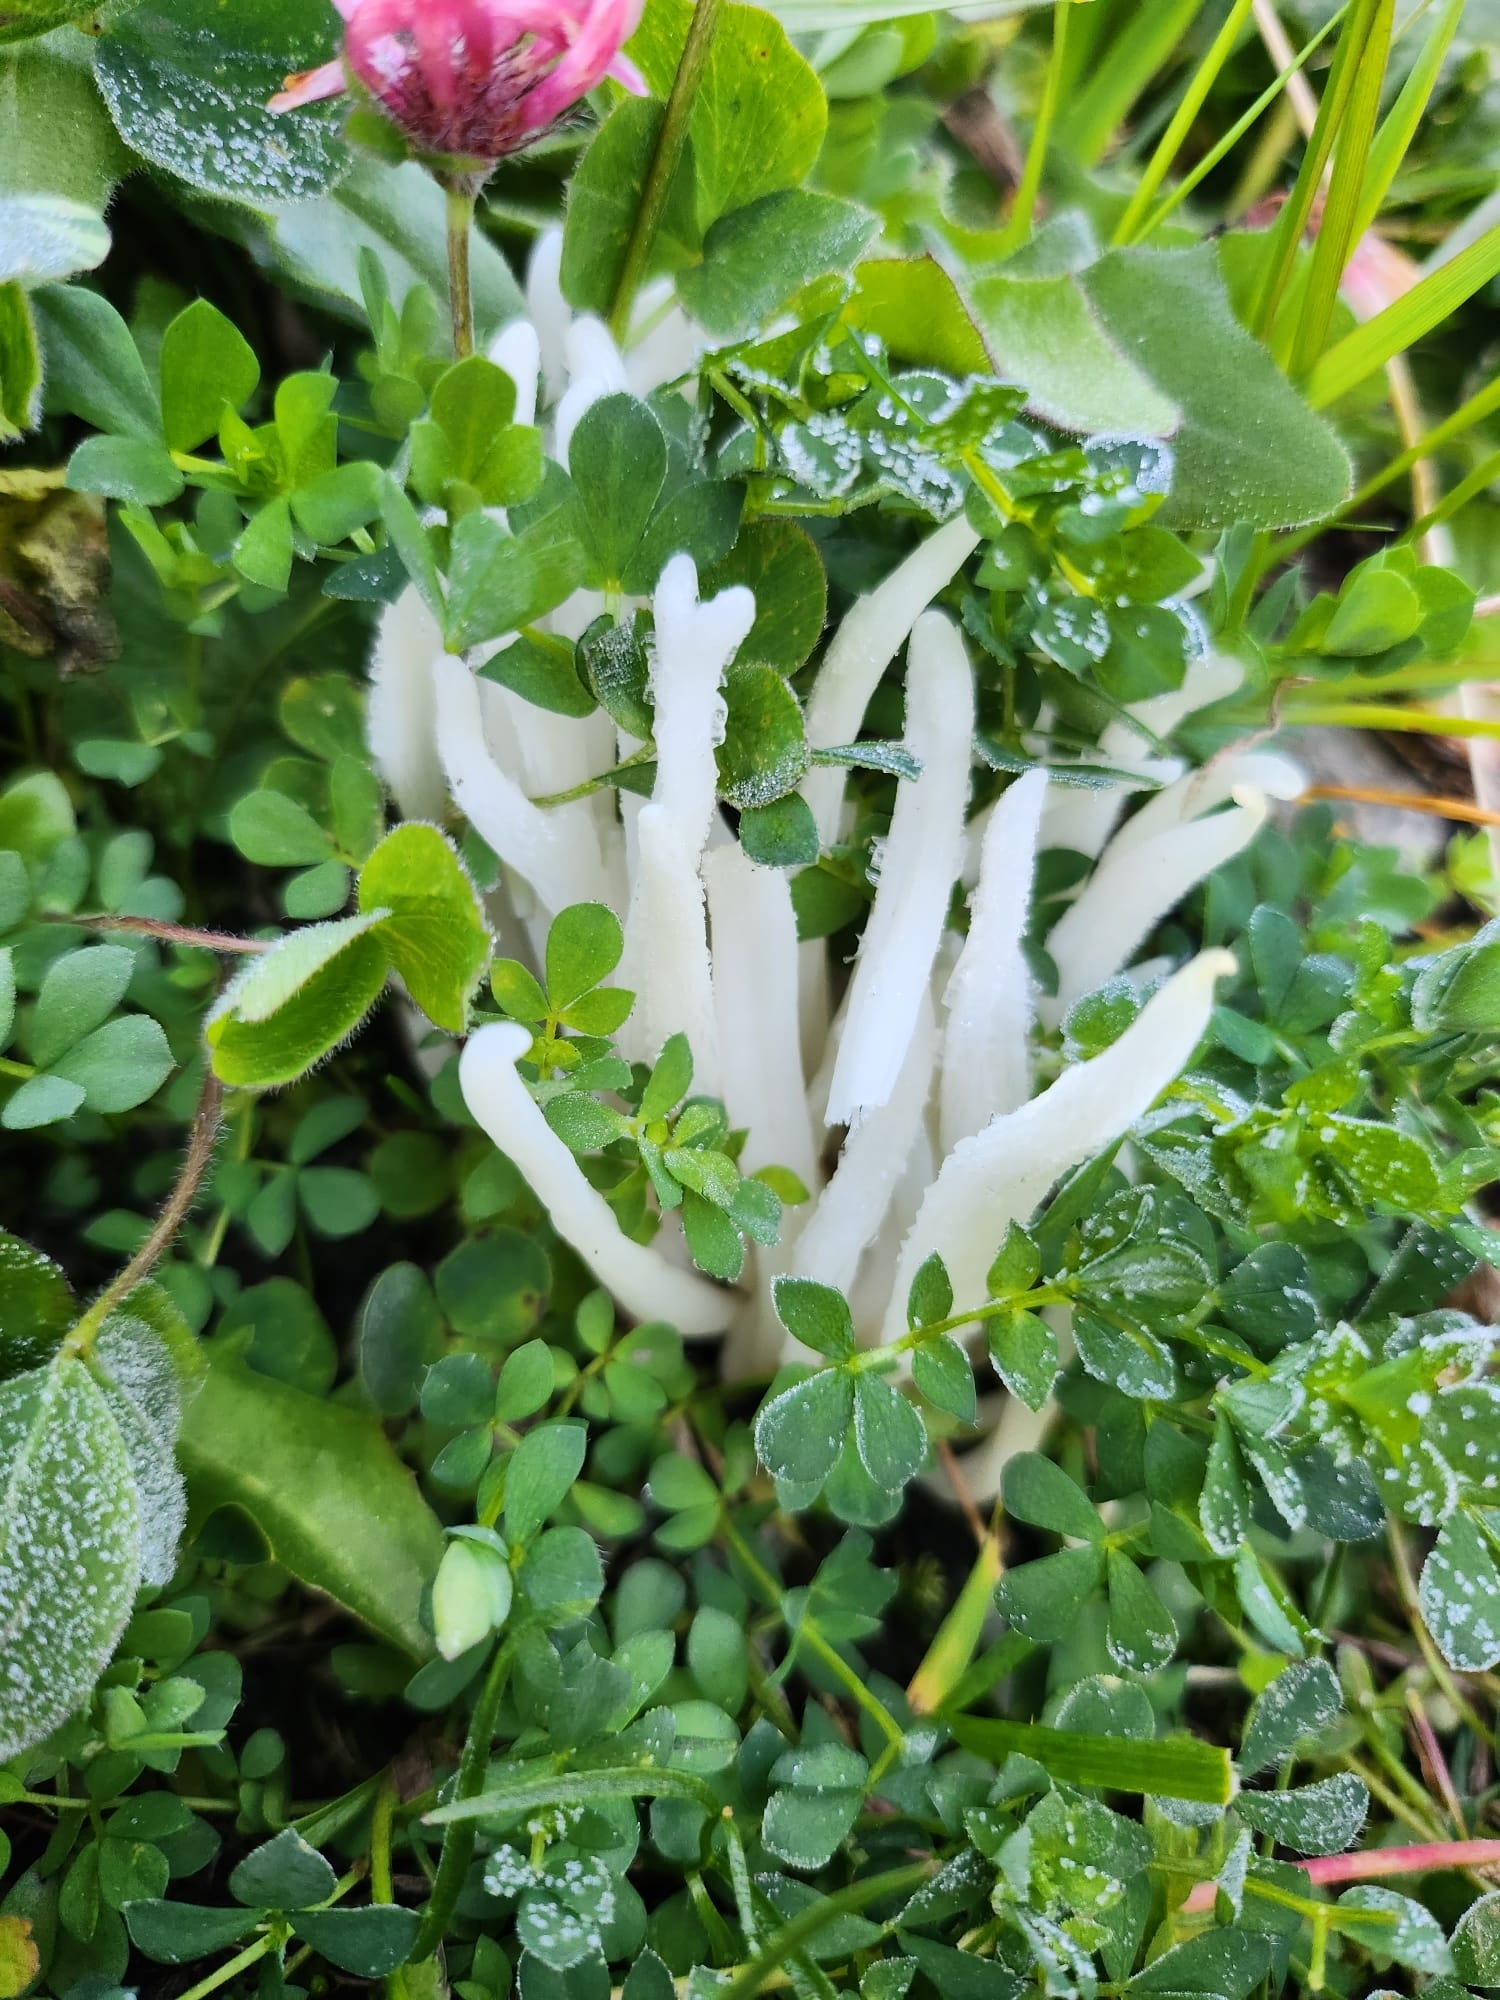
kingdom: Fungi
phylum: Basidiomycota
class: Agaricomycetes
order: Agaricales
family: Clavariaceae
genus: Clavaria
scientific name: Clavaria fragilis
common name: White spindles
